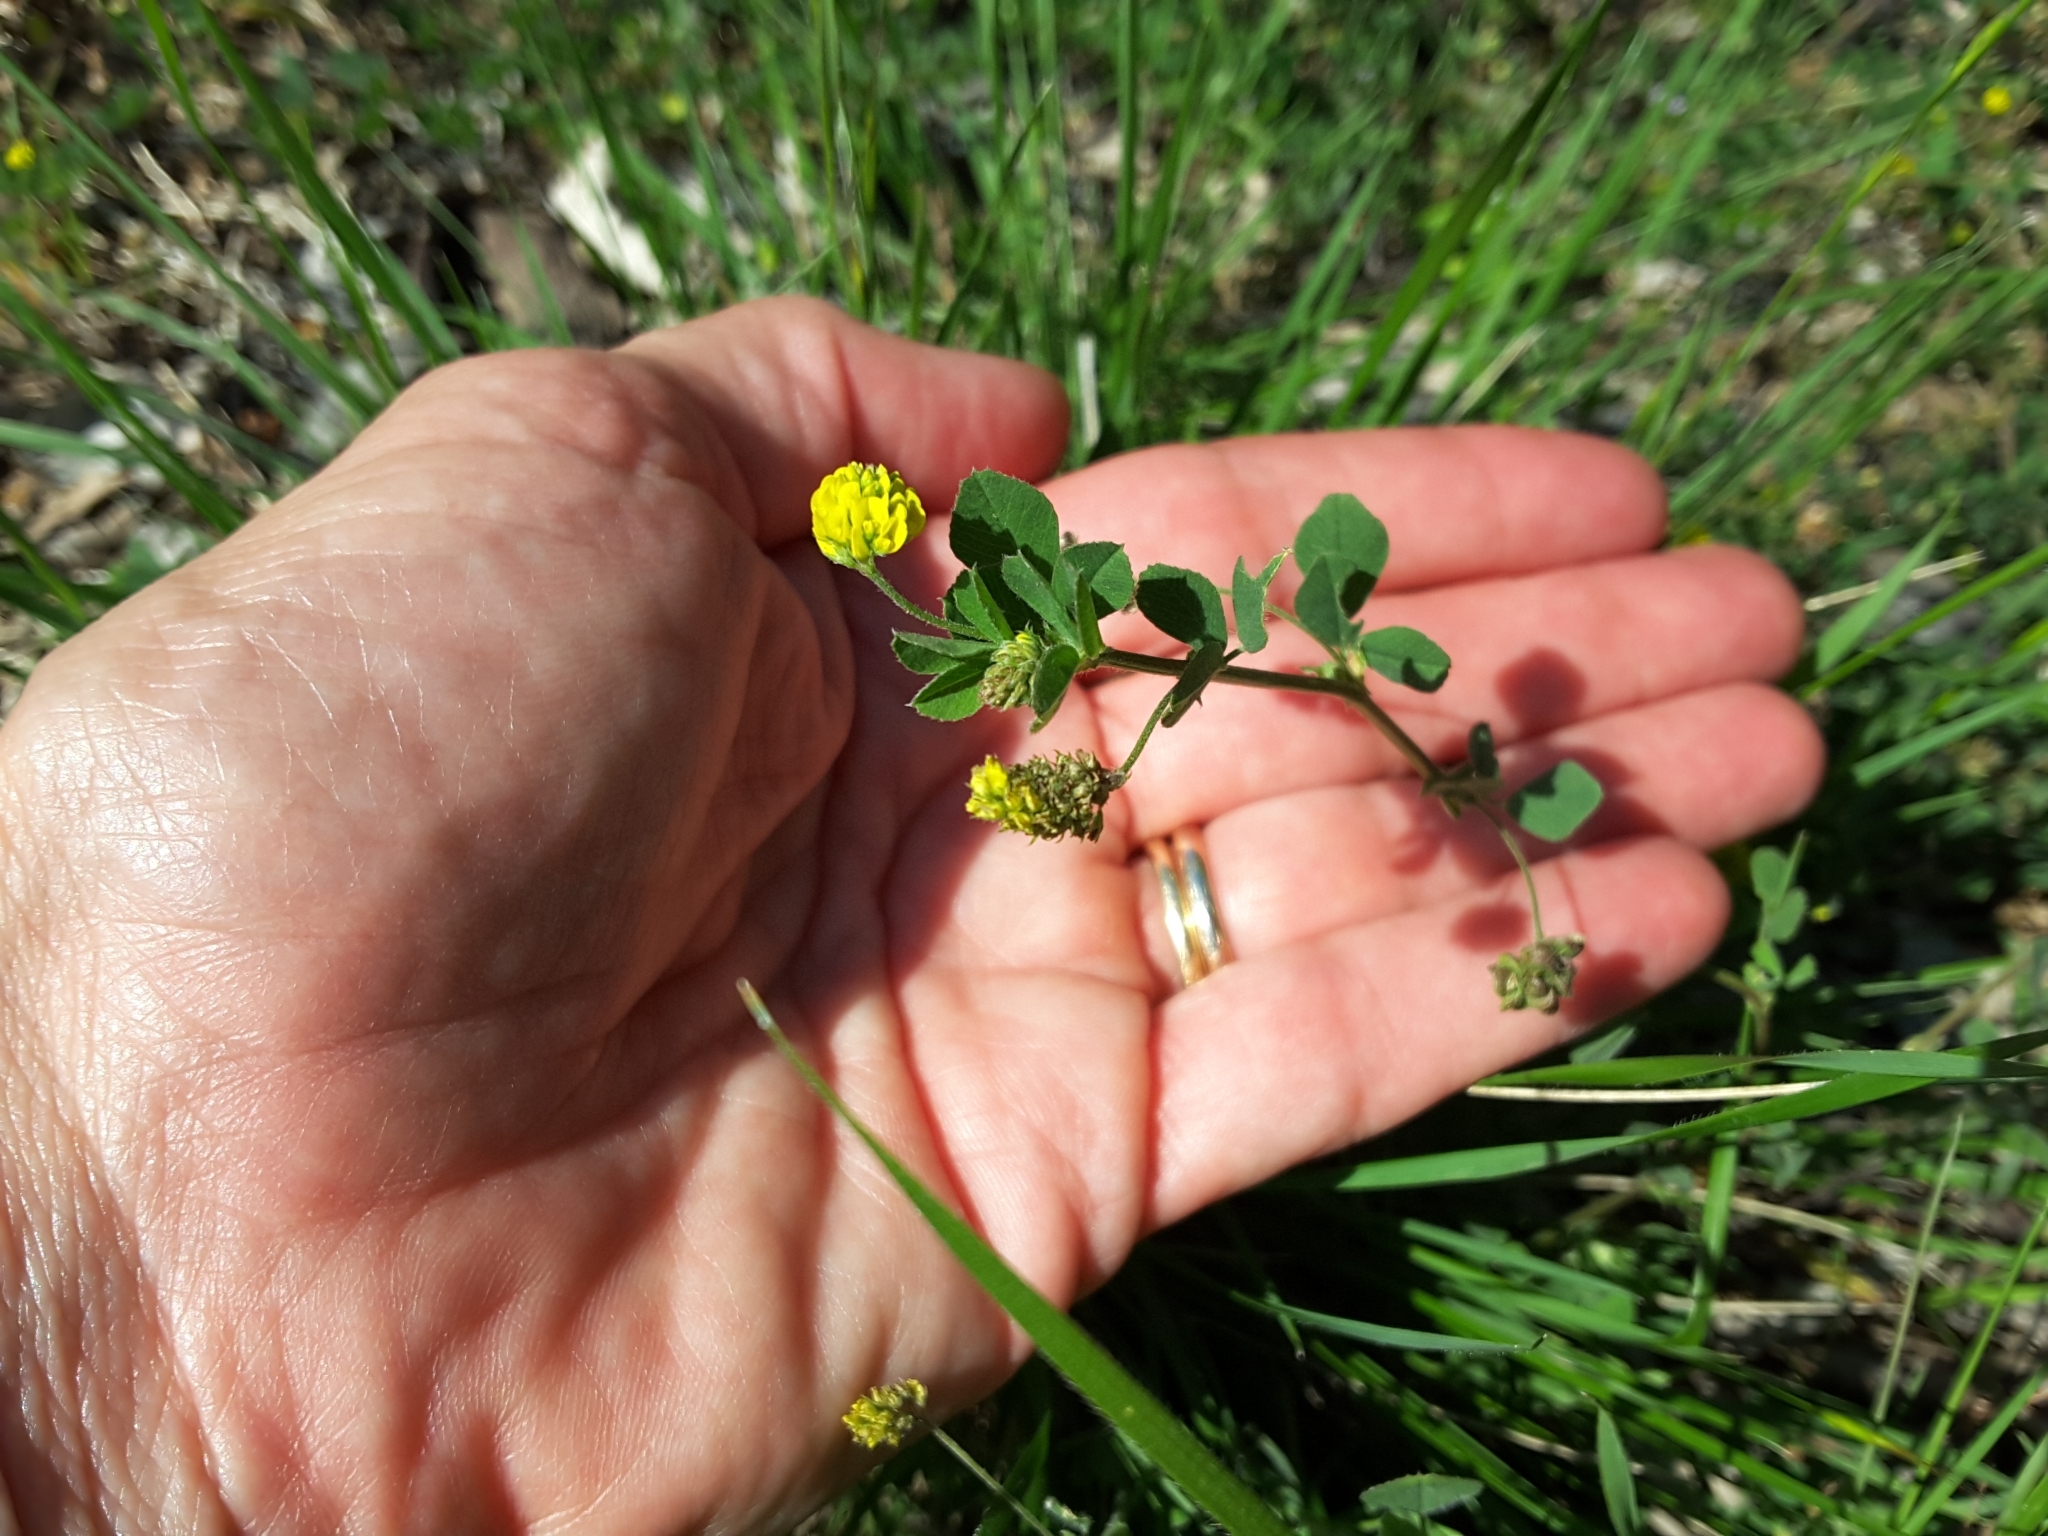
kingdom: Plantae
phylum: Tracheophyta
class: Magnoliopsida
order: Fabales
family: Fabaceae
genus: Medicago
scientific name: Medicago lupulina
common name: Black medick
